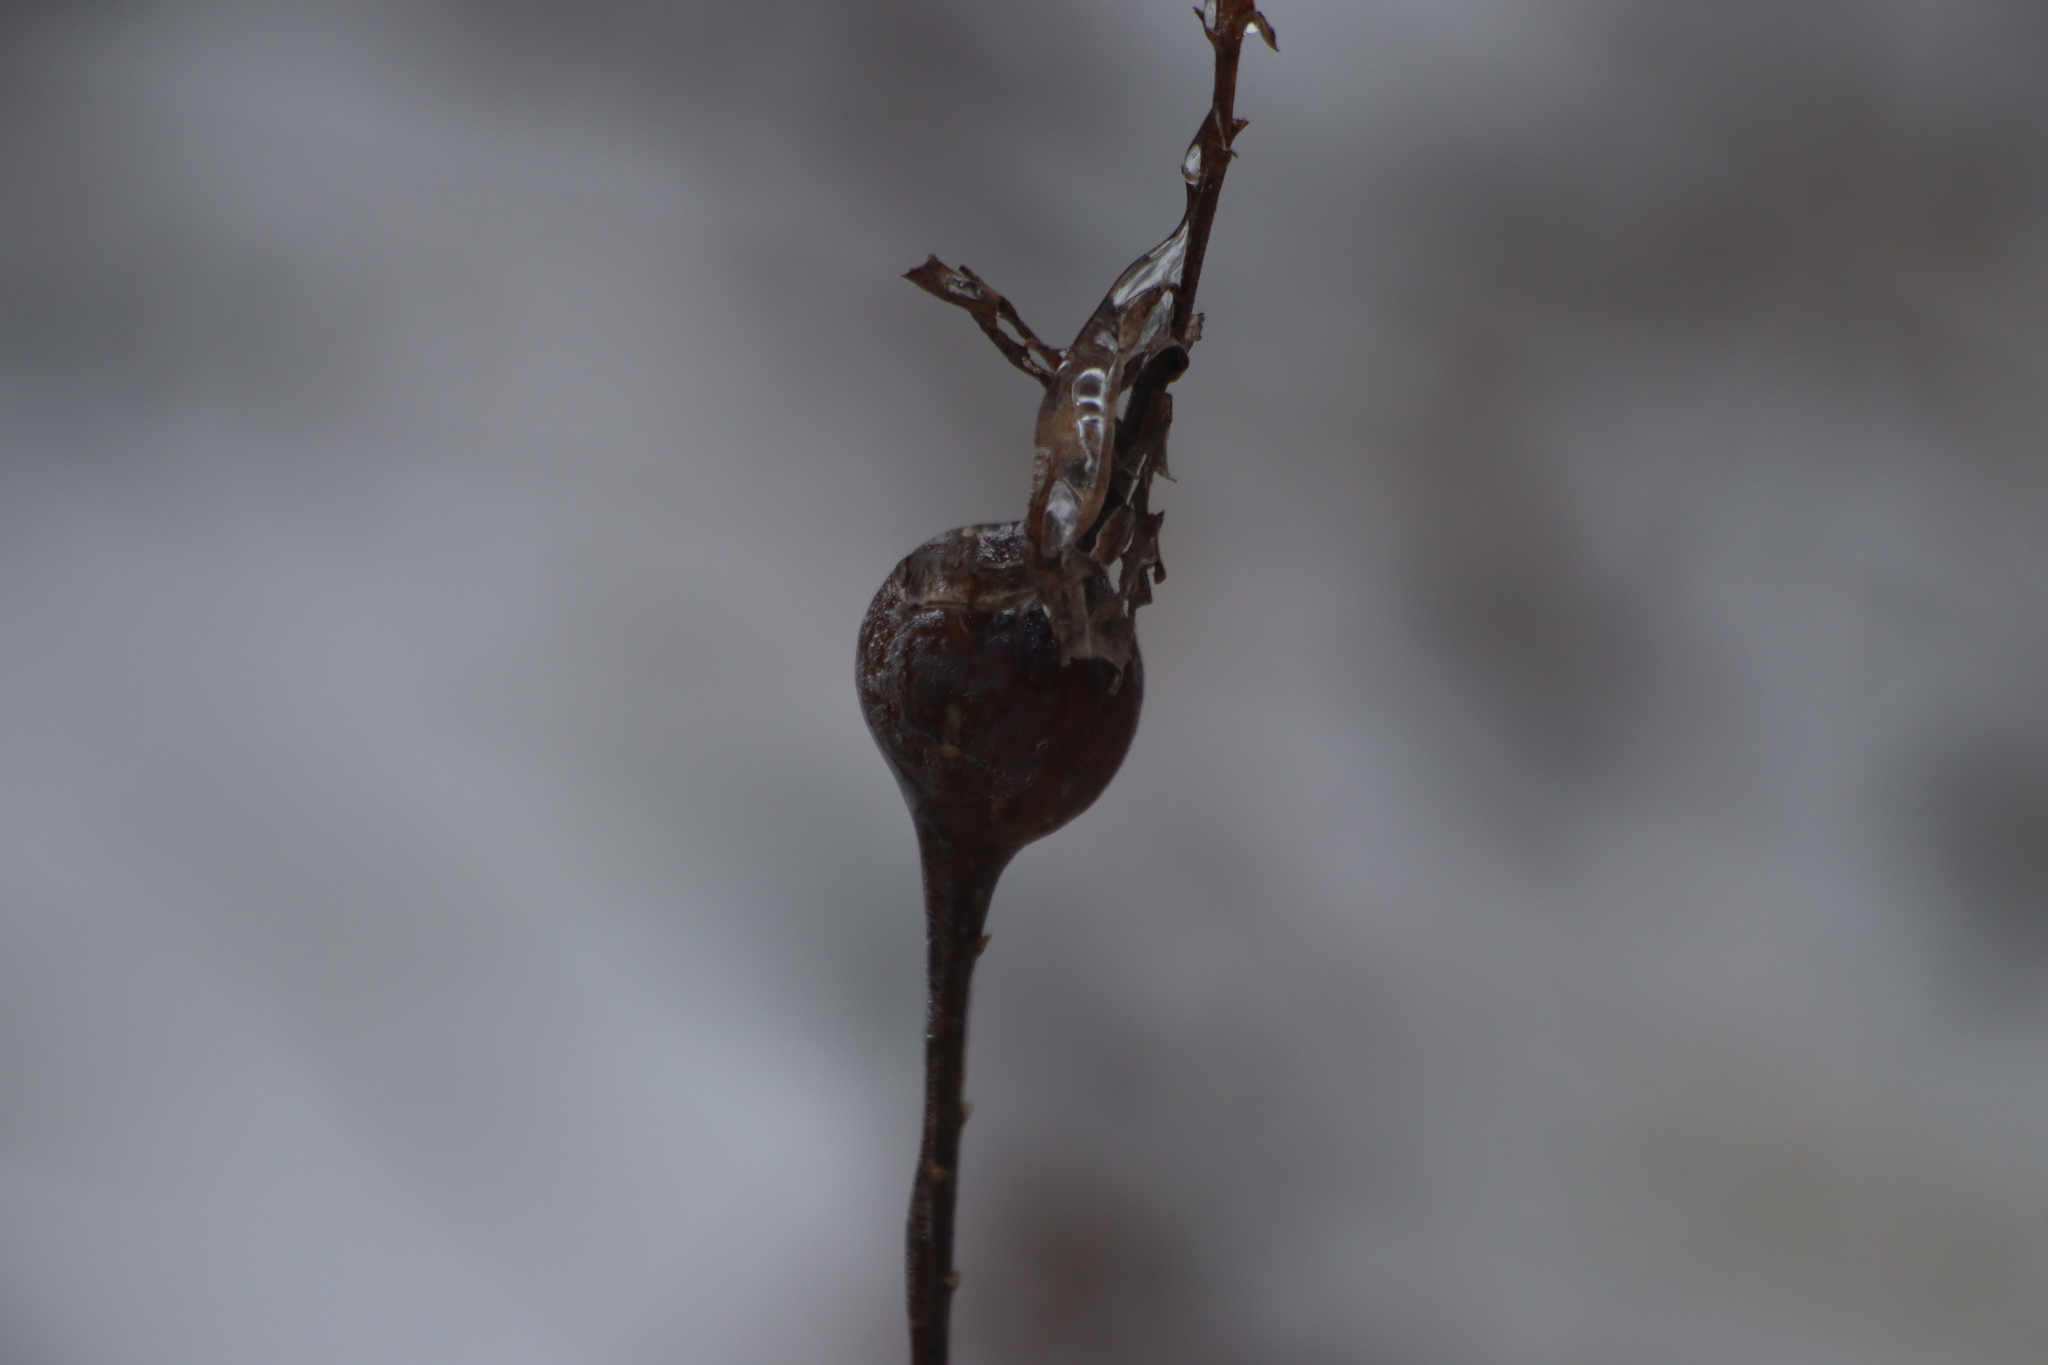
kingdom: Animalia
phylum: Arthropoda
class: Insecta
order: Diptera
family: Tephritidae
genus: Eurosta
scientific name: Eurosta solidaginis
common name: Goldenrod gall fly
